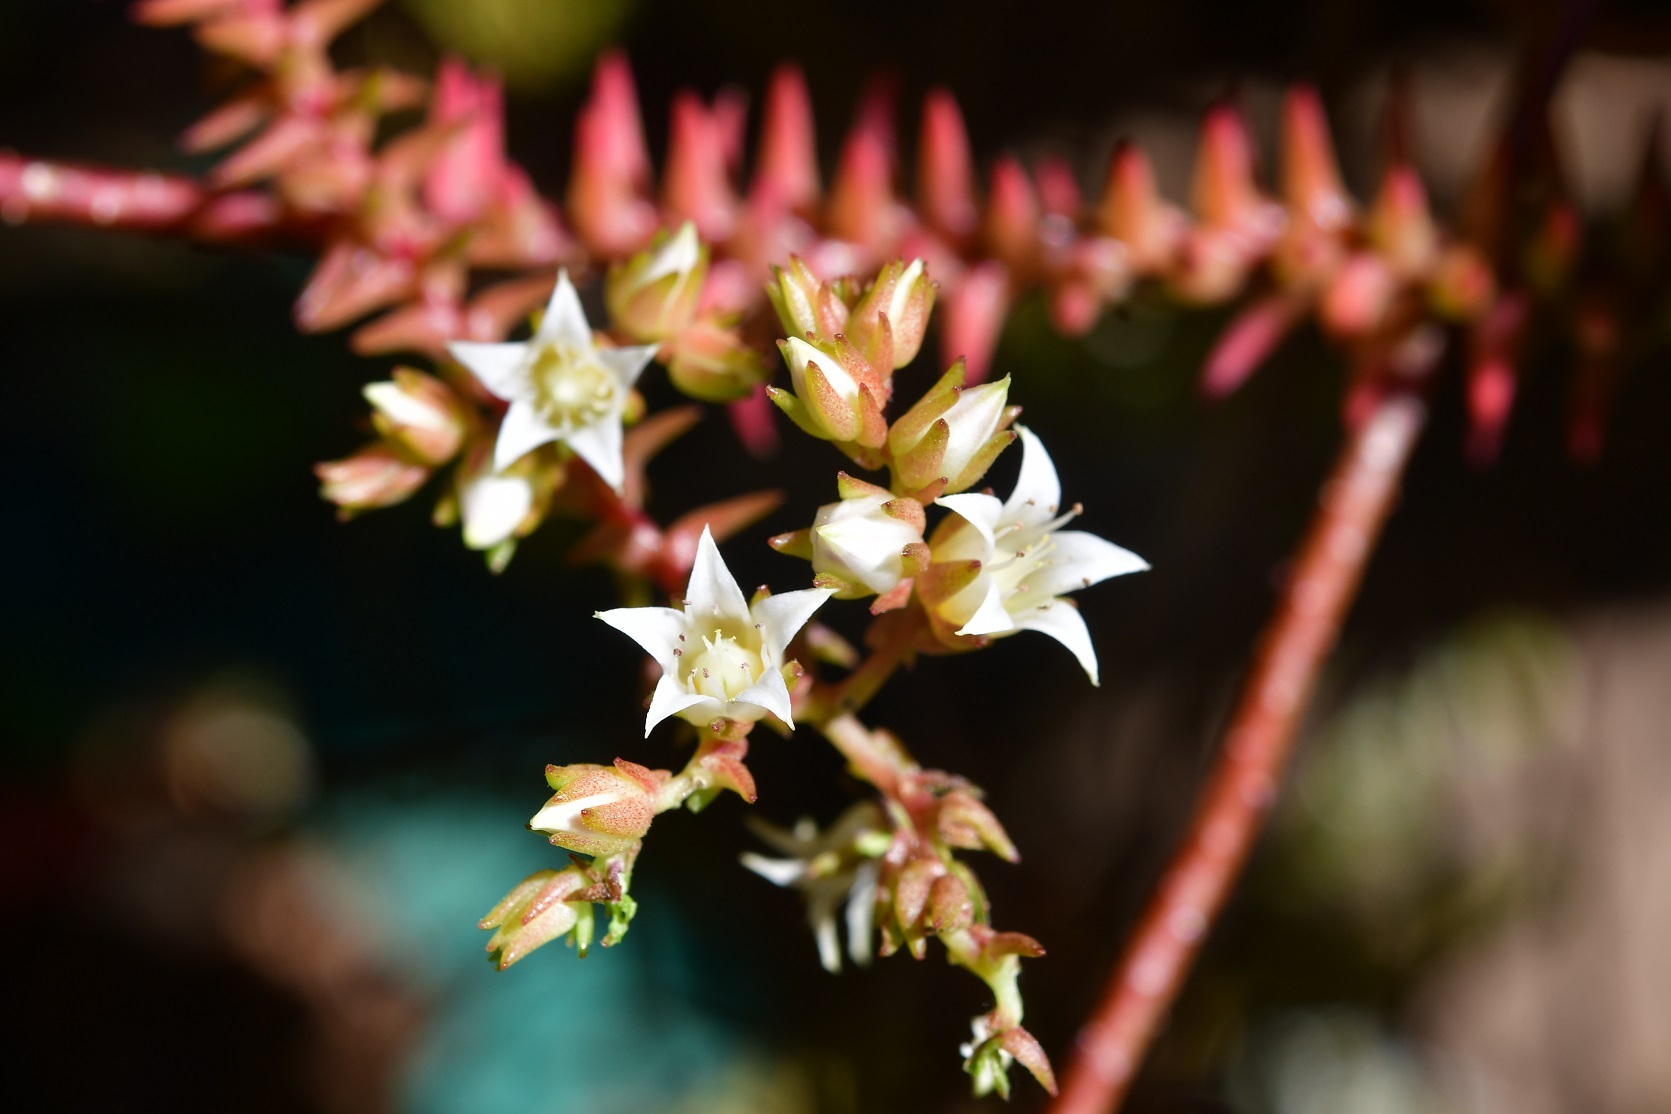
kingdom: Plantae
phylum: Tracheophyta
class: Magnoliopsida
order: Saxifragales
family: Crassulaceae
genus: Villadia
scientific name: Villadia albiflora
